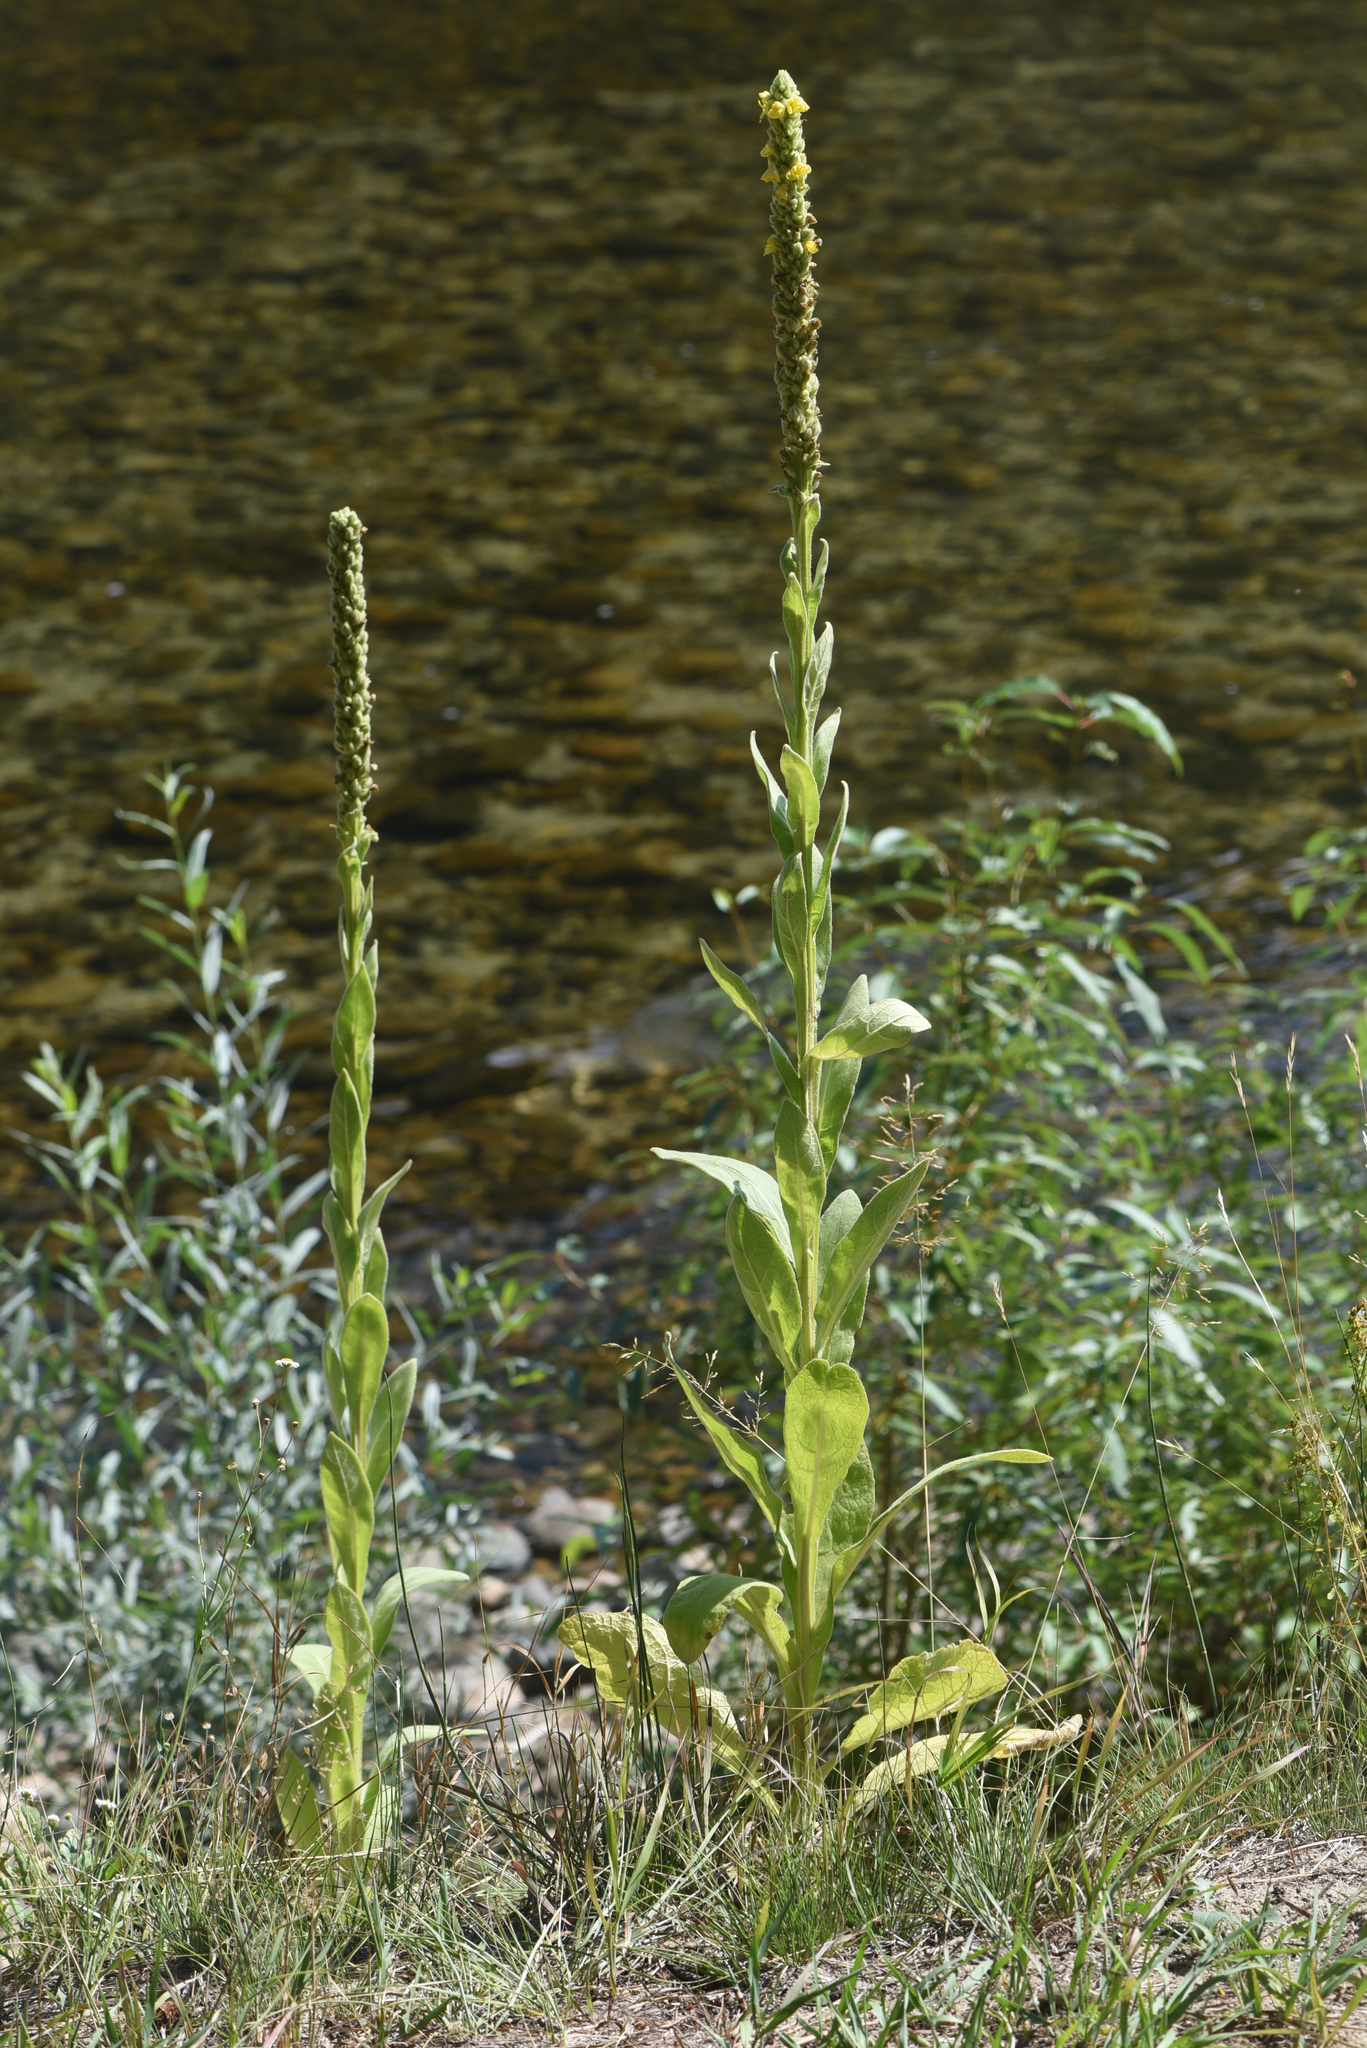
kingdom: Plantae
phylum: Tracheophyta
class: Magnoliopsida
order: Lamiales
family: Scrophulariaceae
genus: Verbascum
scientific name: Verbascum thapsus
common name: Common mullein
